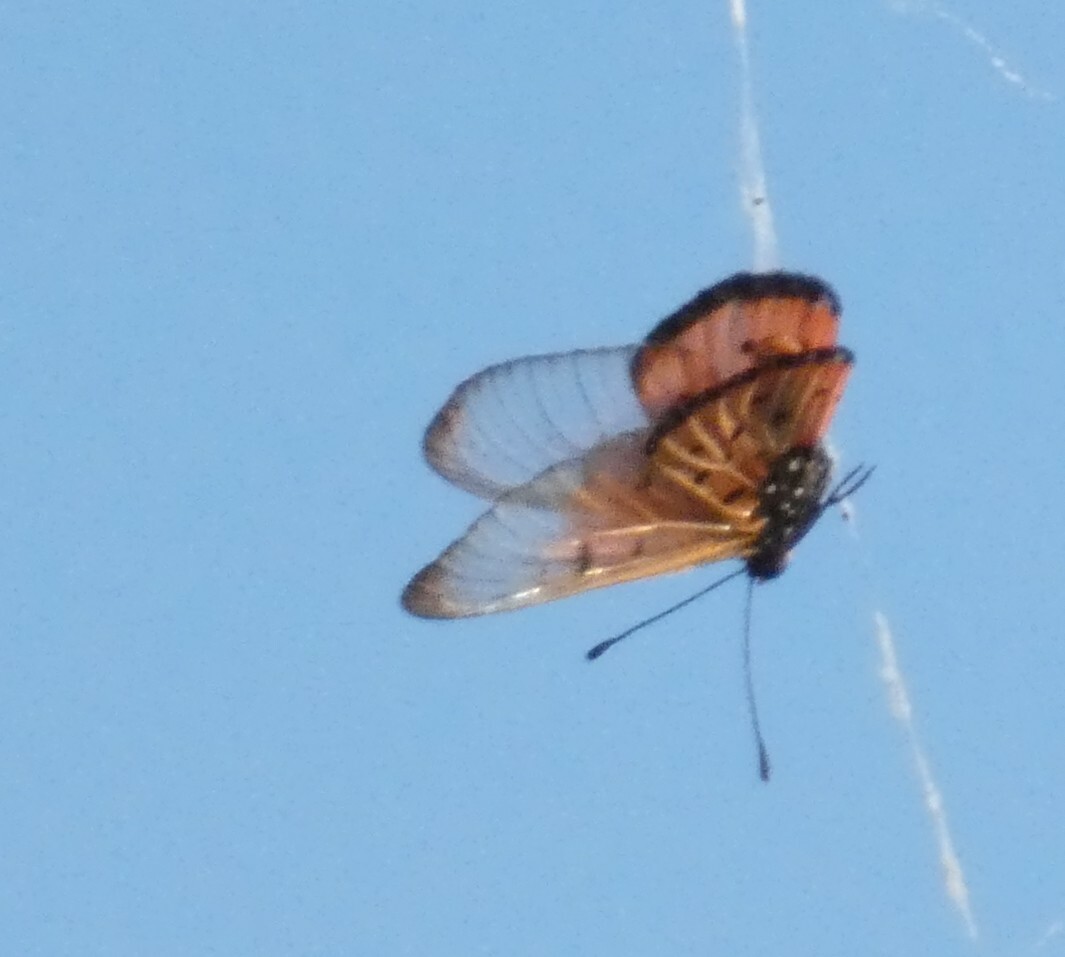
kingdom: Animalia
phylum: Arthropoda
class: Insecta
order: Lepidoptera
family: Nymphalidae
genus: Acraea
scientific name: Acraea neobule
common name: Dancing acraea
